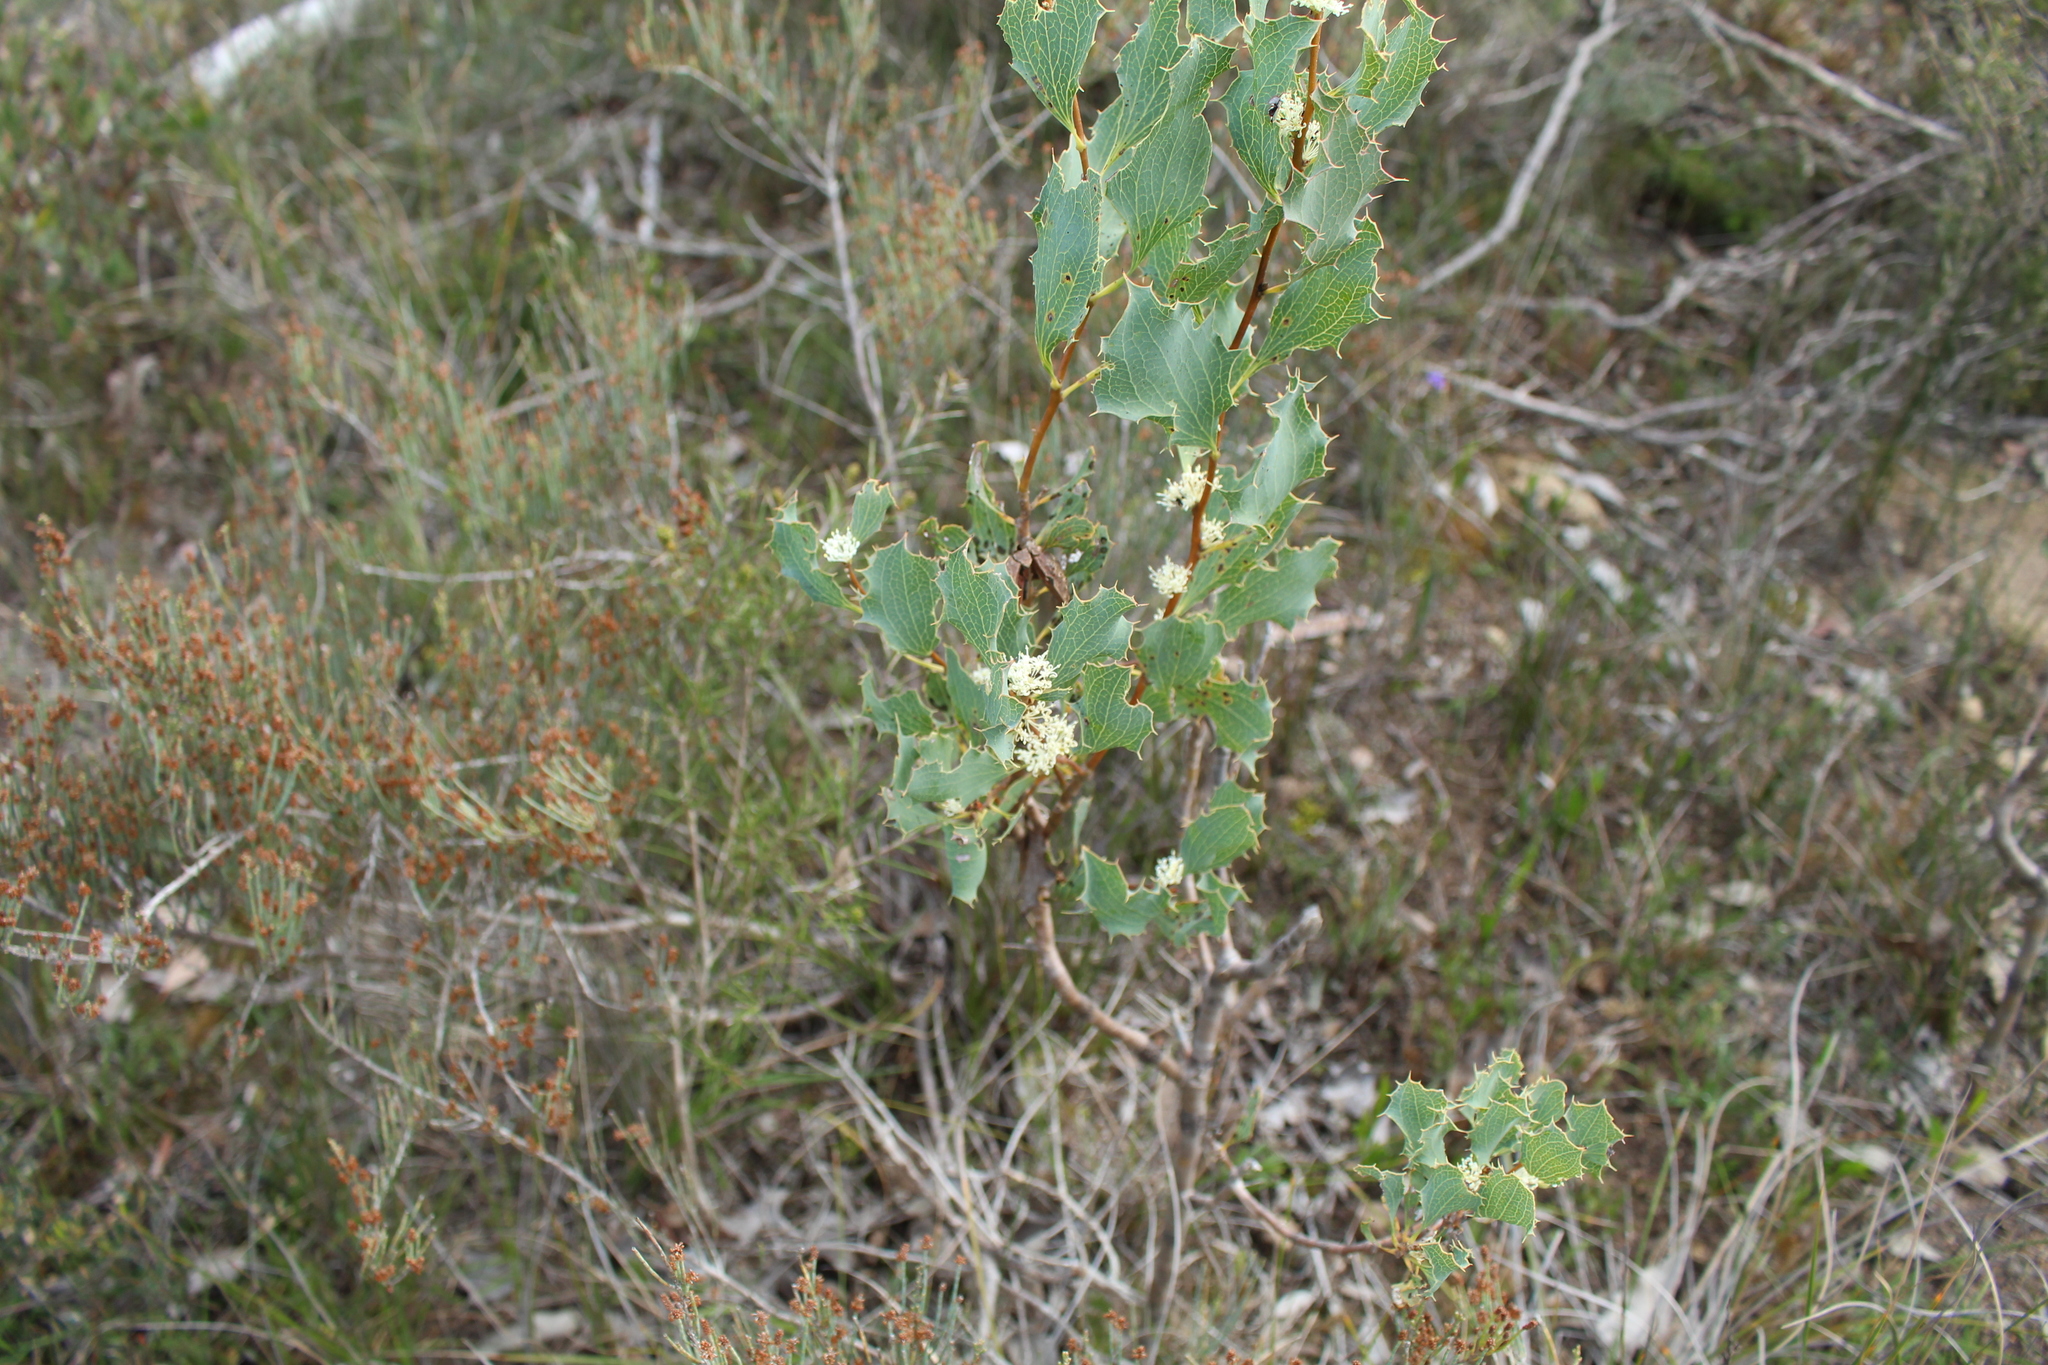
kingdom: Plantae
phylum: Tracheophyta
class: Magnoliopsida
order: Proteales
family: Proteaceae
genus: Hakea
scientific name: Hakea undulata
